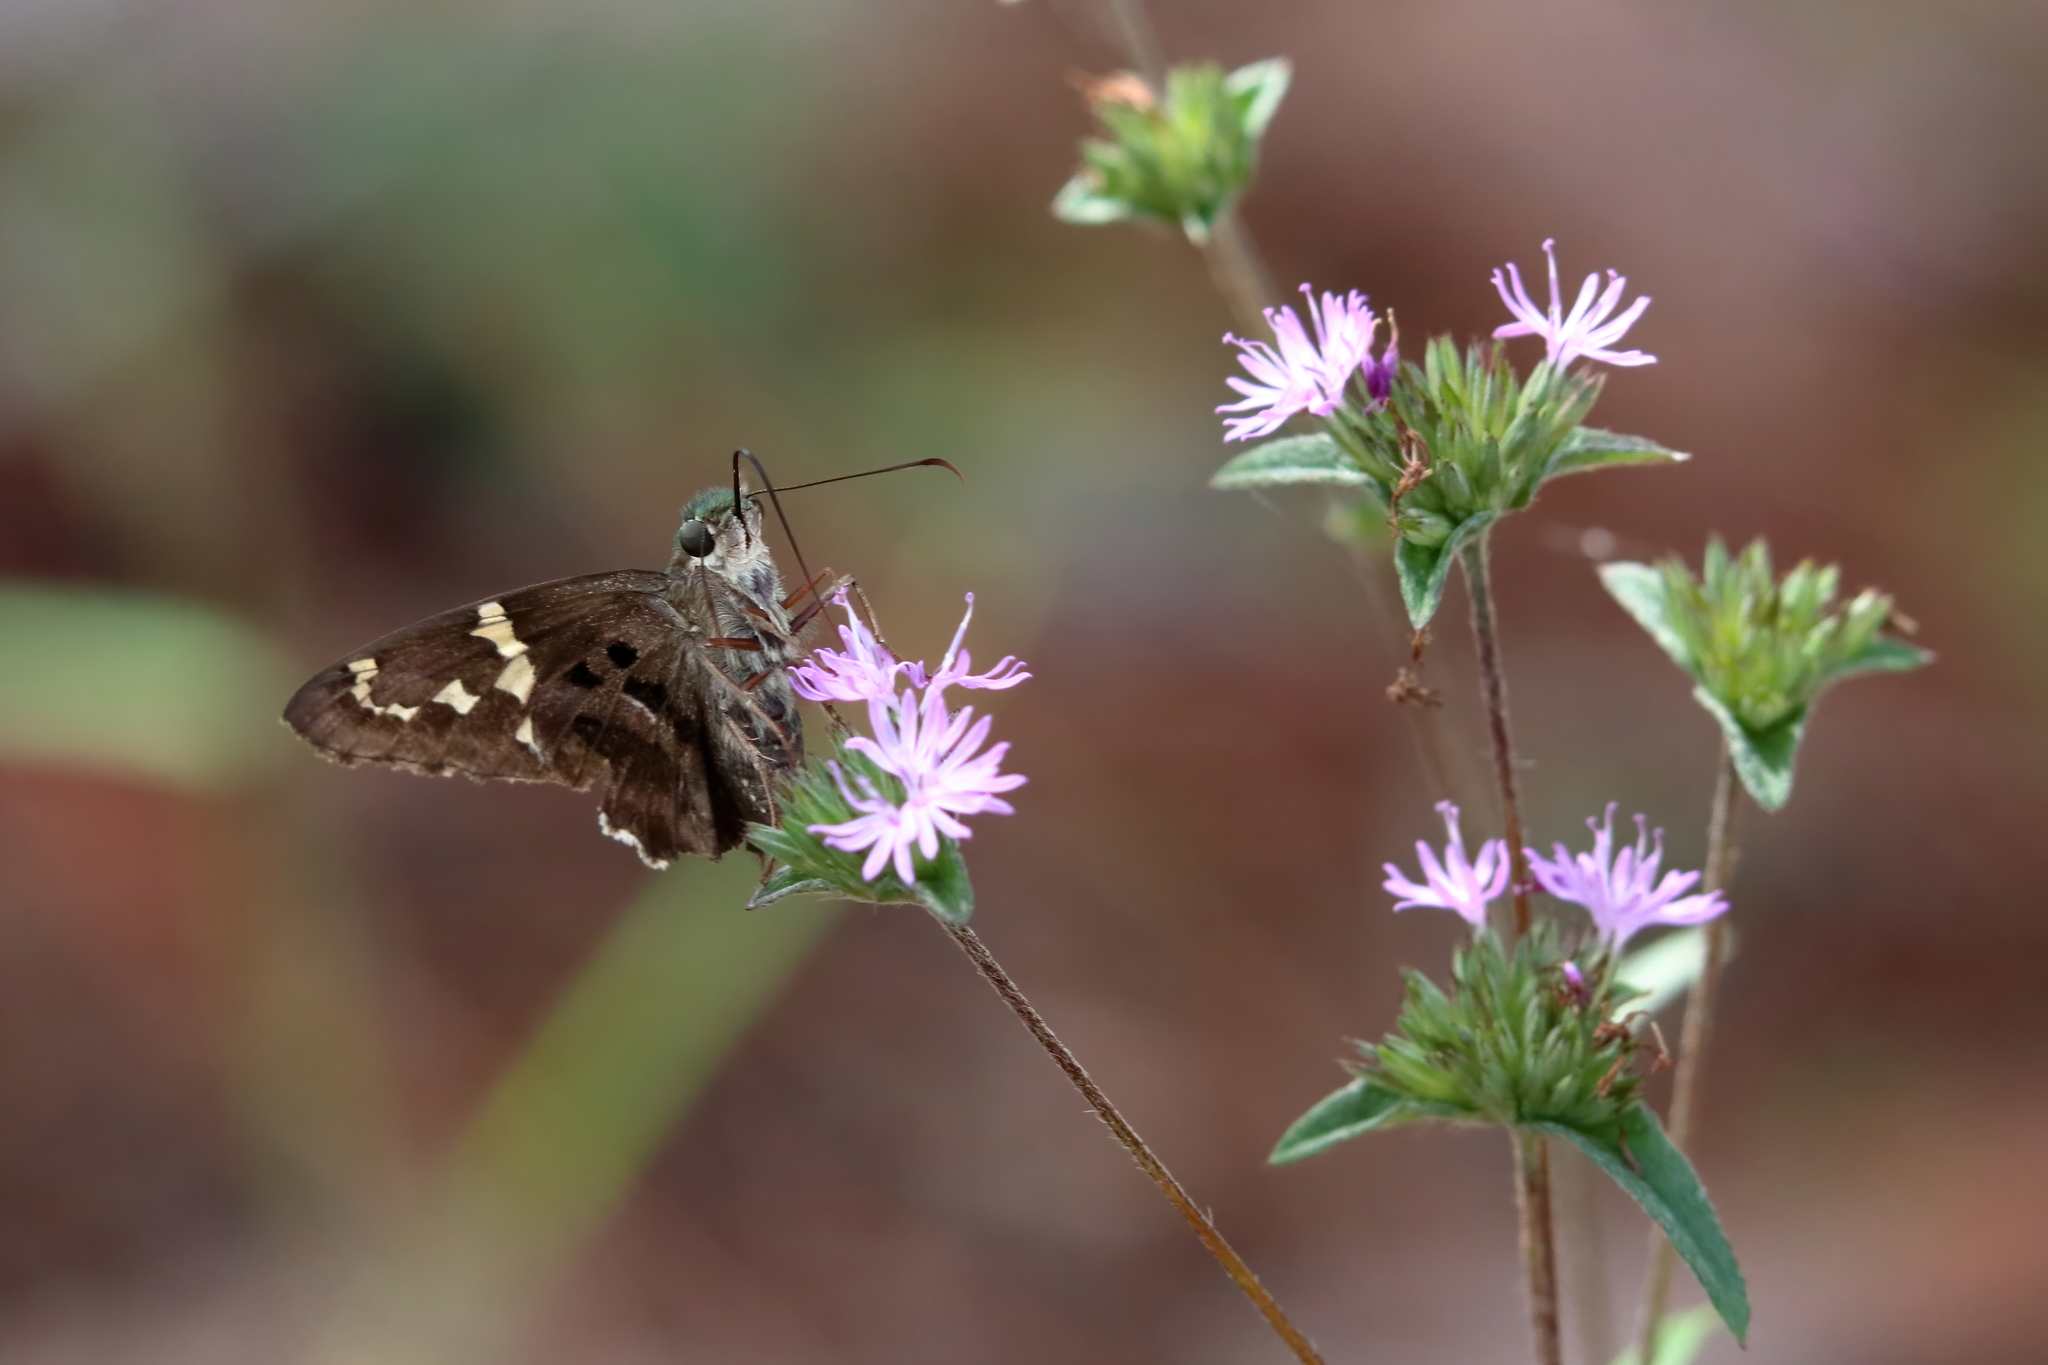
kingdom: Animalia
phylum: Arthropoda
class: Insecta
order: Lepidoptera
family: Hesperiidae
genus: Urbanus
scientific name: Urbanus proteus
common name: Long-tailed skipper
